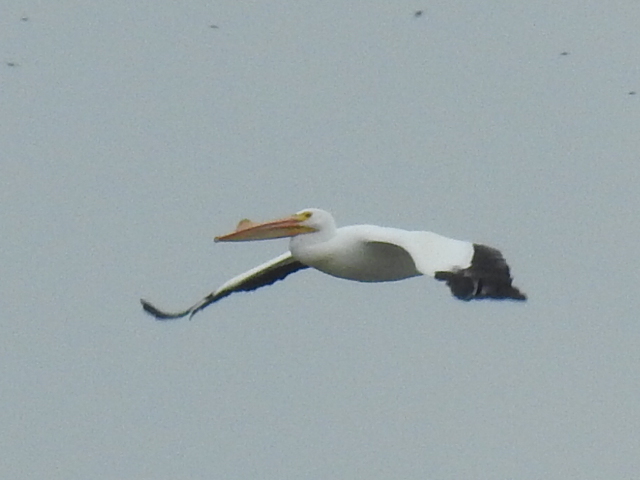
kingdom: Animalia
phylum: Chordata
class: Aves
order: Pelecaniformes
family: Pelecanidae
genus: Pelecanus
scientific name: Pelecanus erythrorhynchos
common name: American white pelican
